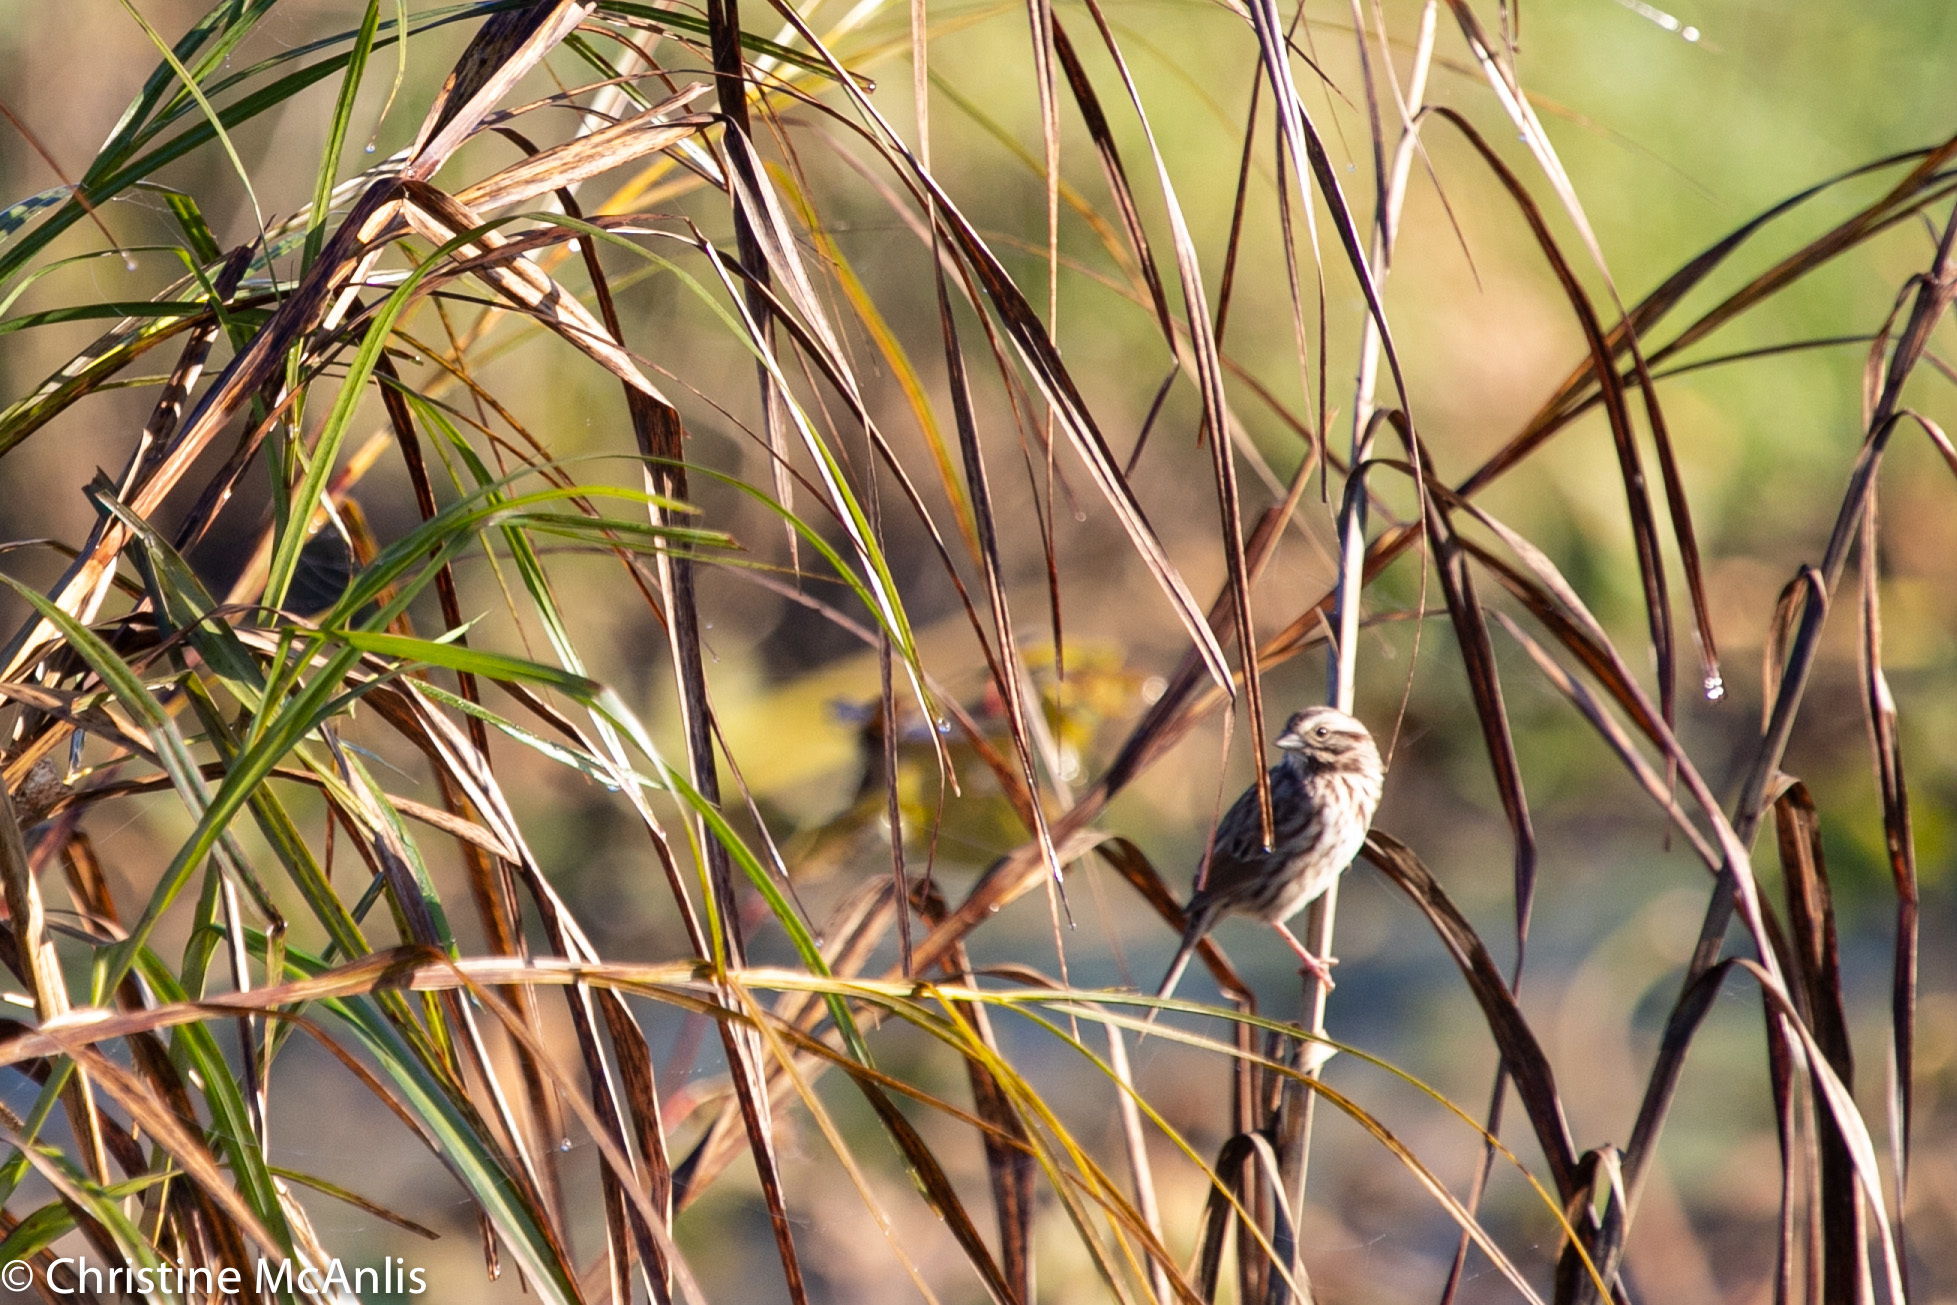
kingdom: Animalia
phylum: Chordata
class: Aves
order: Passeriformes
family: Passerellidae
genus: Melospiza
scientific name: Melospiza melodia
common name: Song sparrow
